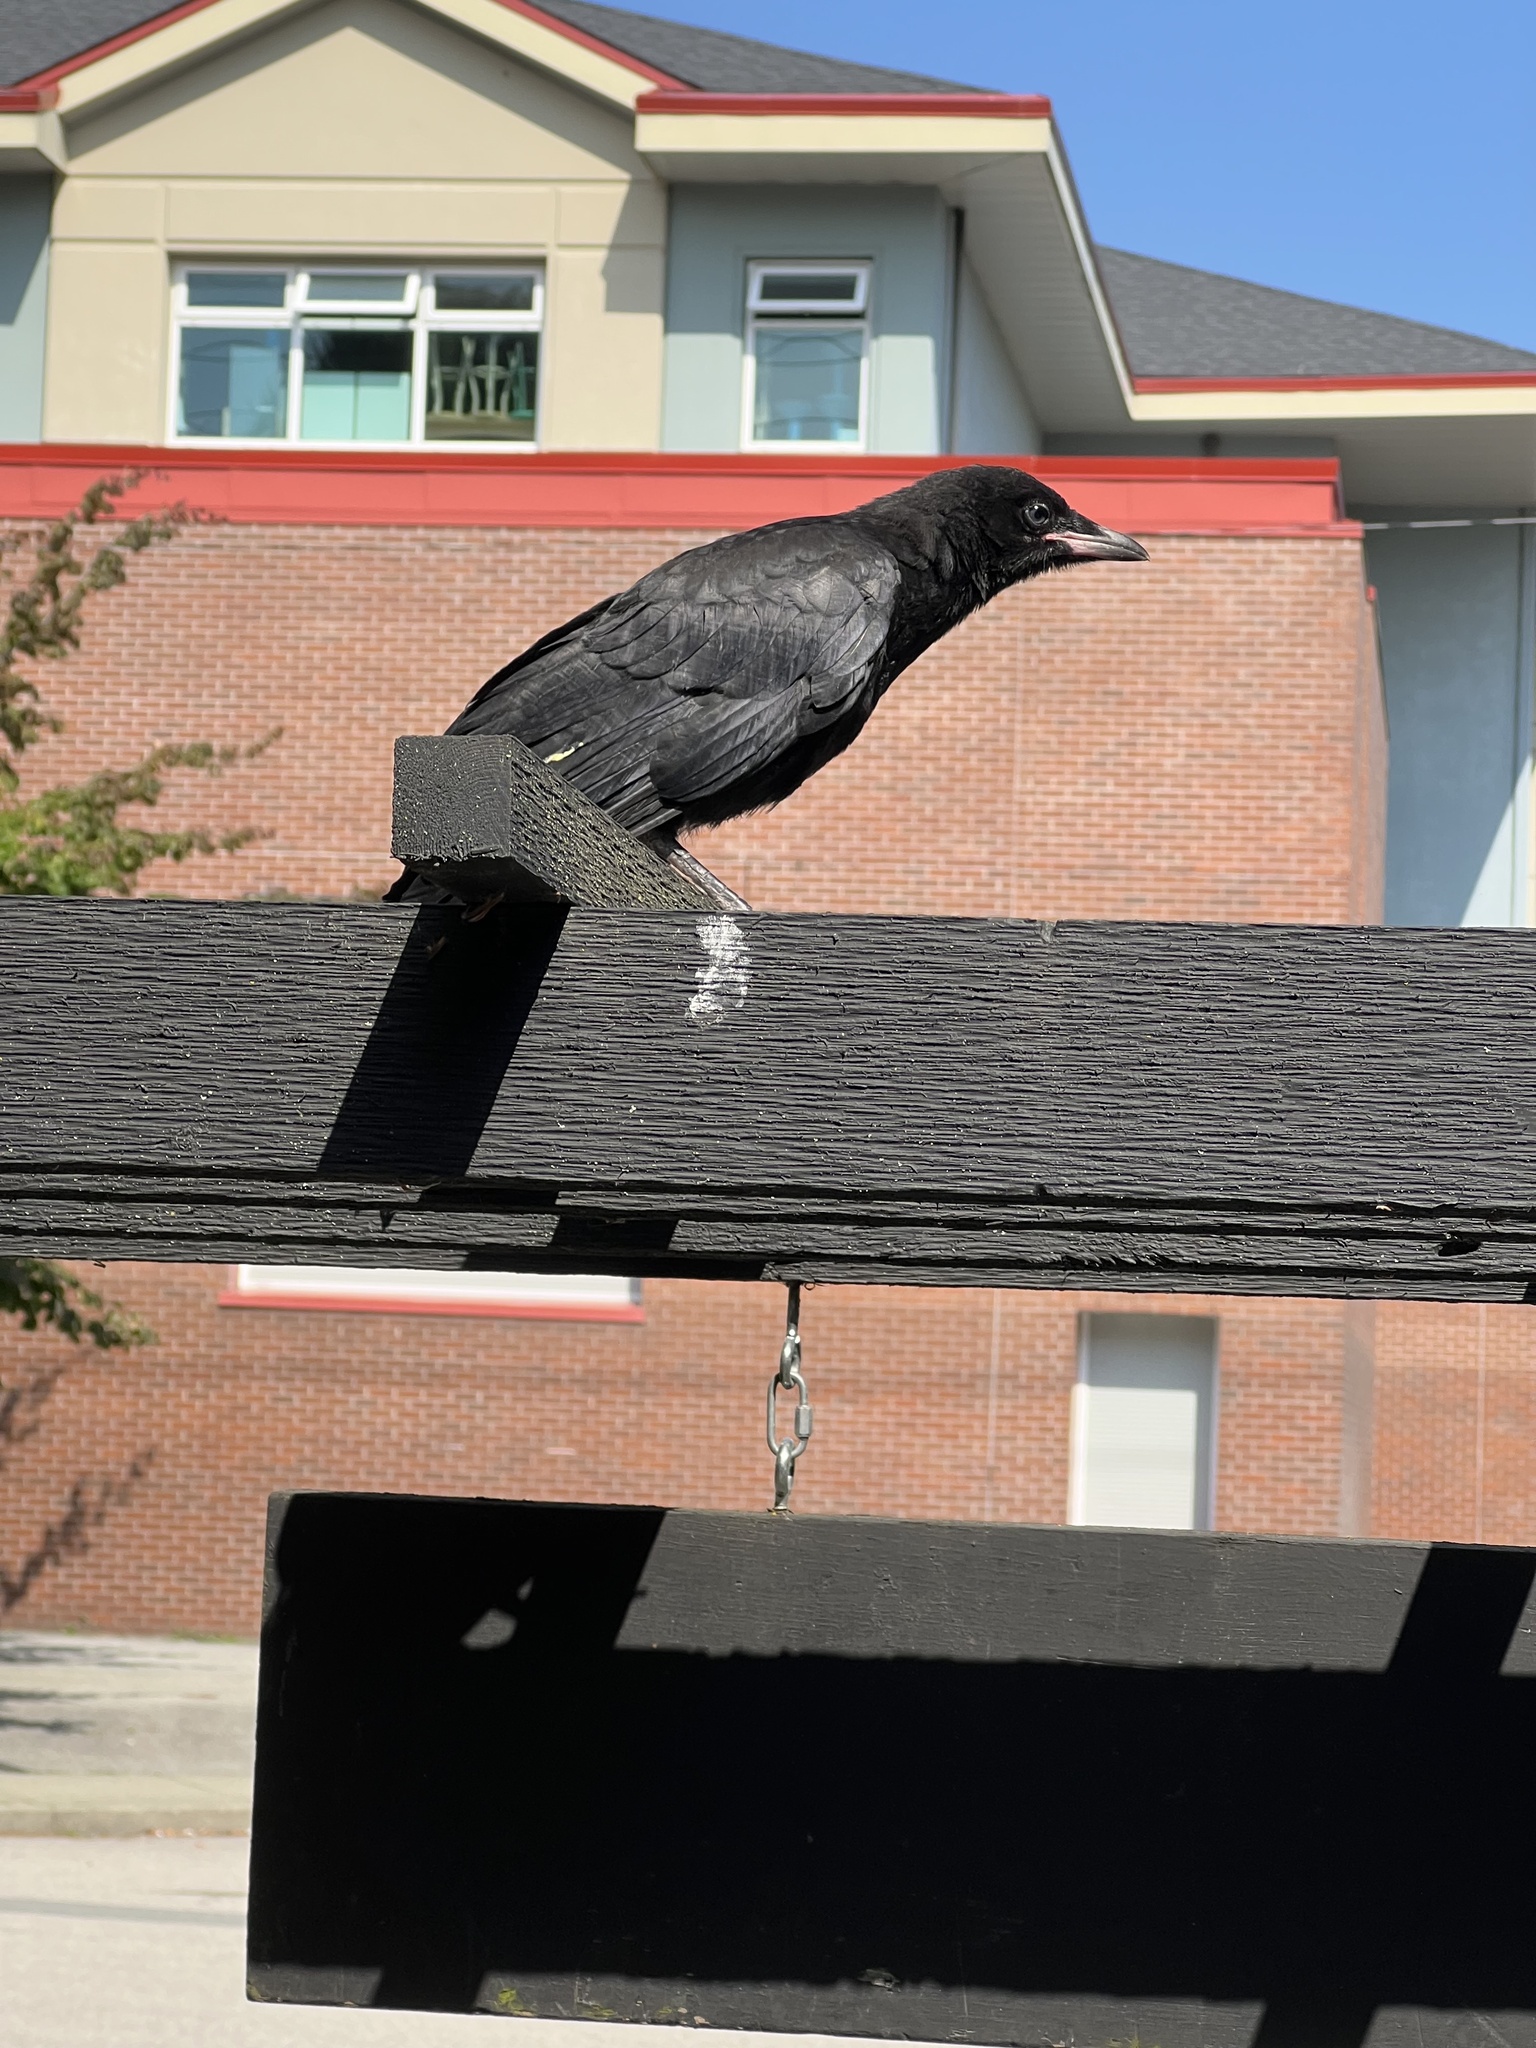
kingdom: Animalia
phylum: Chordata
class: Aves
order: Passeriformes
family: Corvidae
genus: Corvus
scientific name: Corvus brachyrhynchos
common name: American crow
